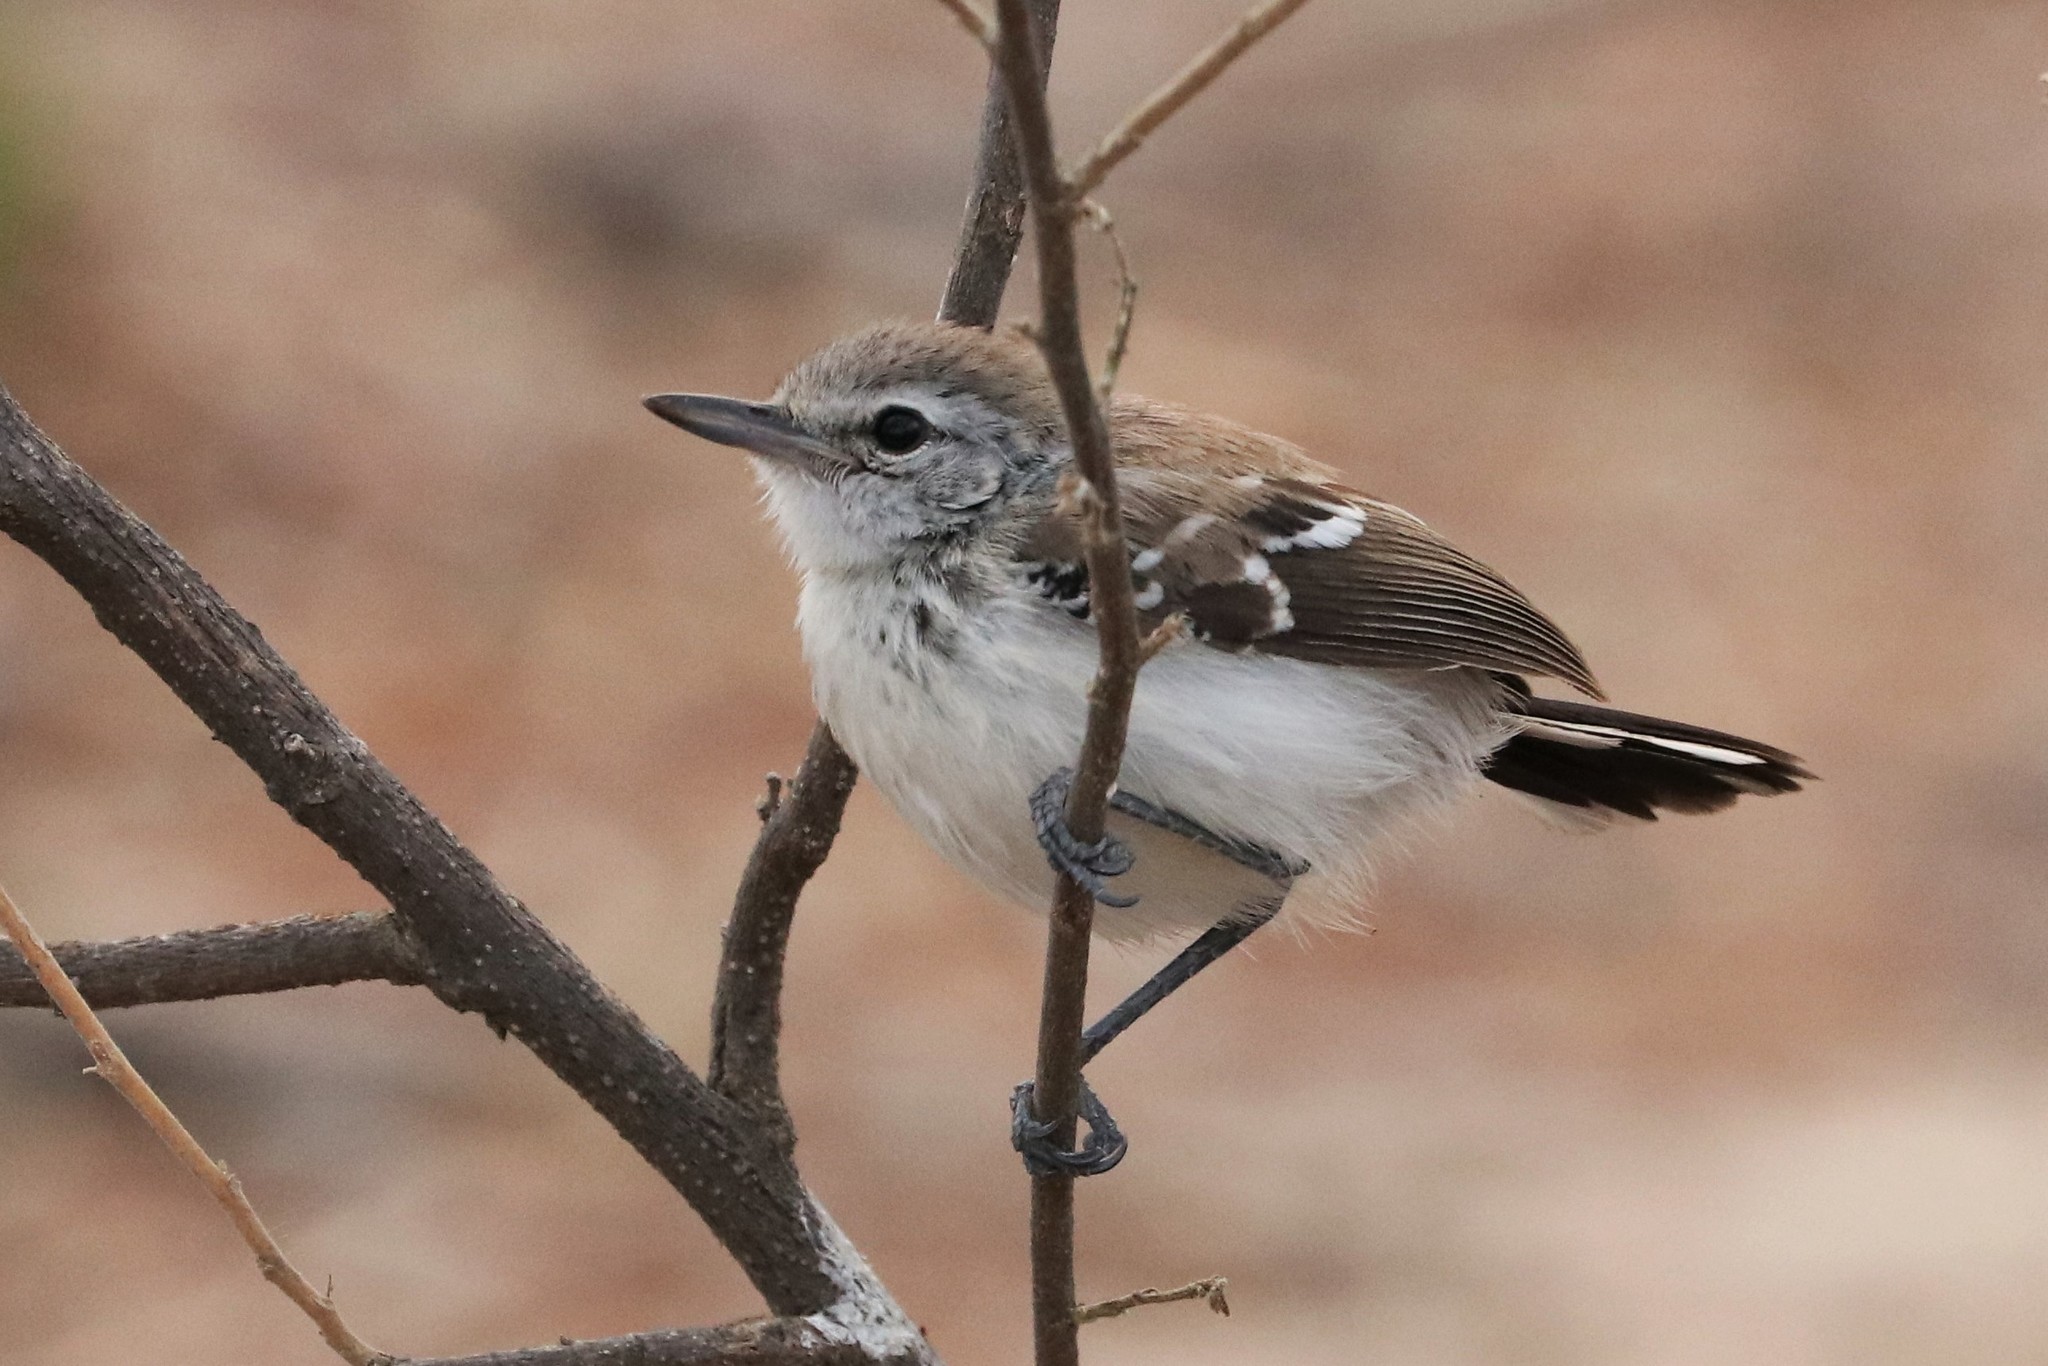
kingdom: Animalia
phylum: Chordata
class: Aves
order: Passeriformes
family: Thamnophilidae
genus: Formicivora
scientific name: Formicivora intermedia
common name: Northern white-fringed antwren
